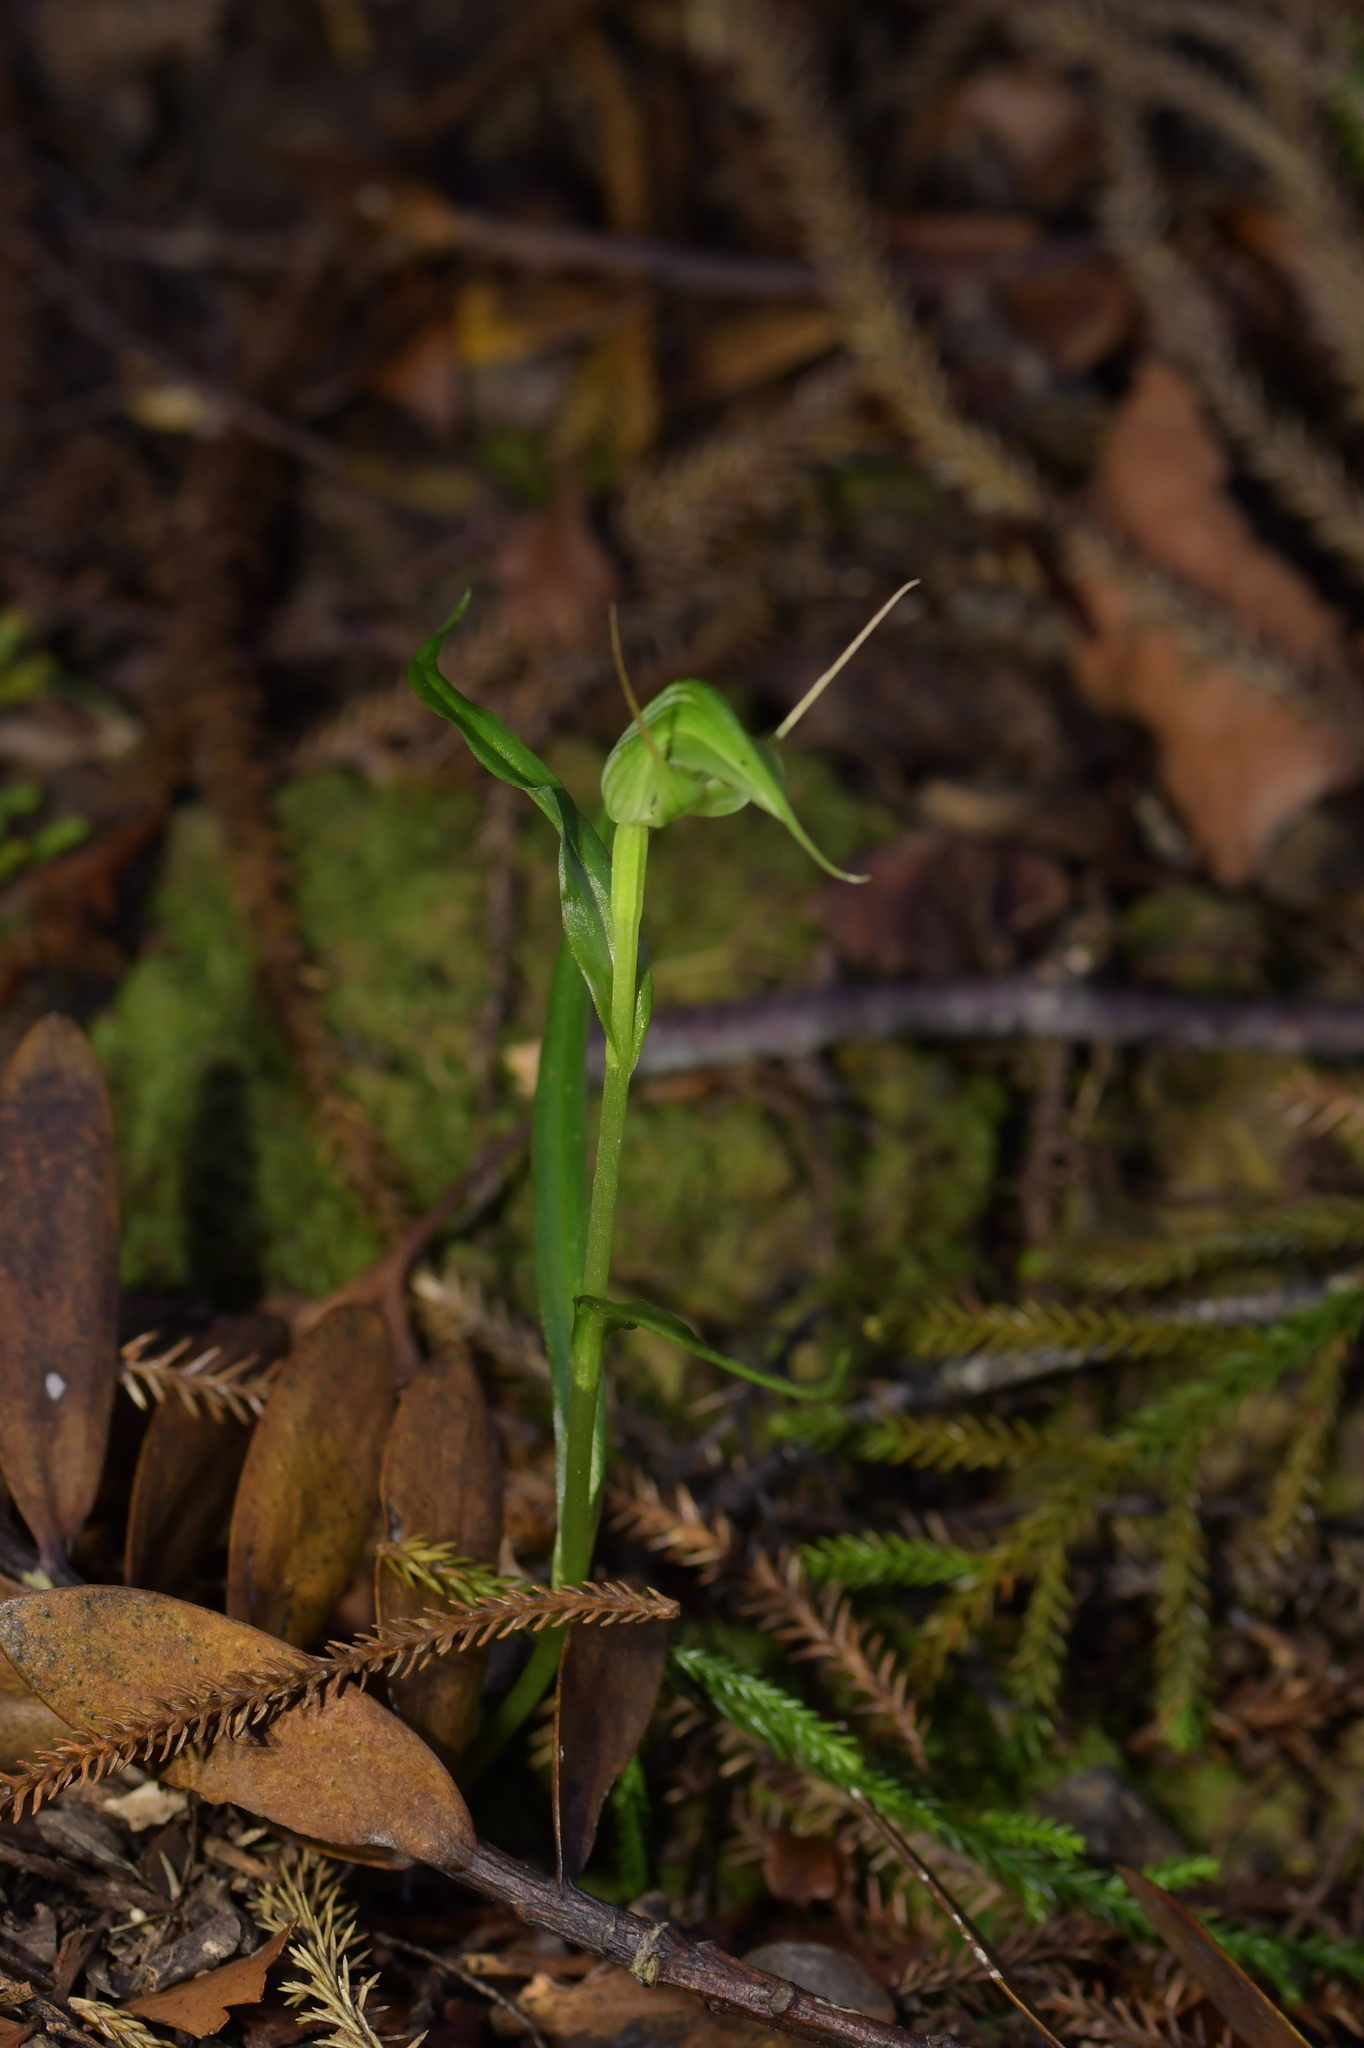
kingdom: Plantae
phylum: Tracheophyta
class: Liliopsida
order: Asparagales
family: Orchidaceae
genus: Pterostylis
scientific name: Pterostylis agathicola
